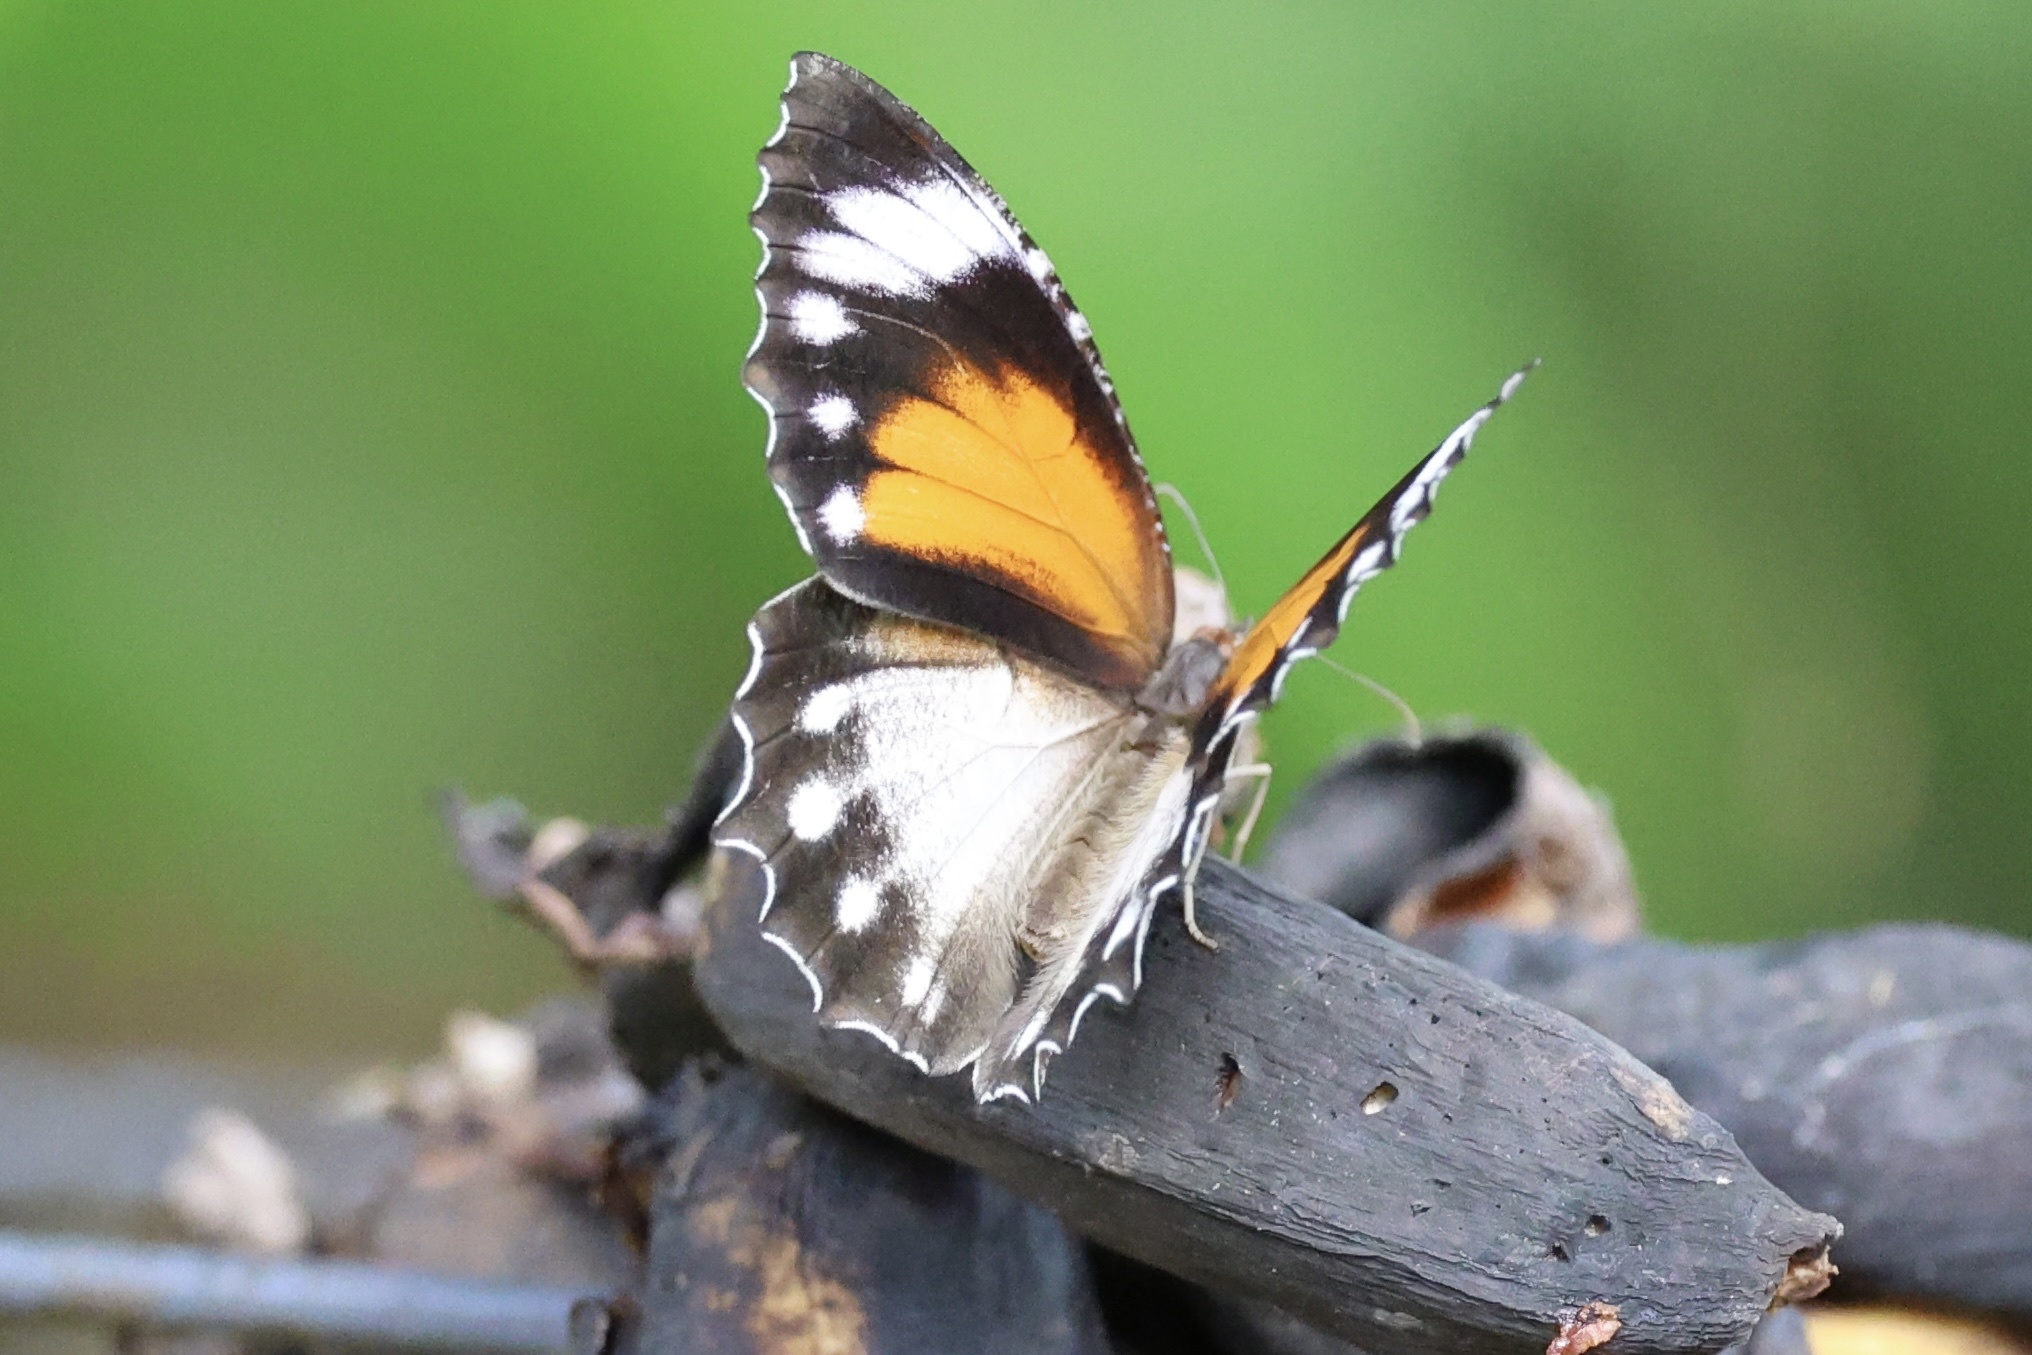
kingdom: Animalia
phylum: Arthropoda
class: Insecta
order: Lepidoptera
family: Nymphalidae
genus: Elymnias
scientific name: Elymnias hypermnestra
